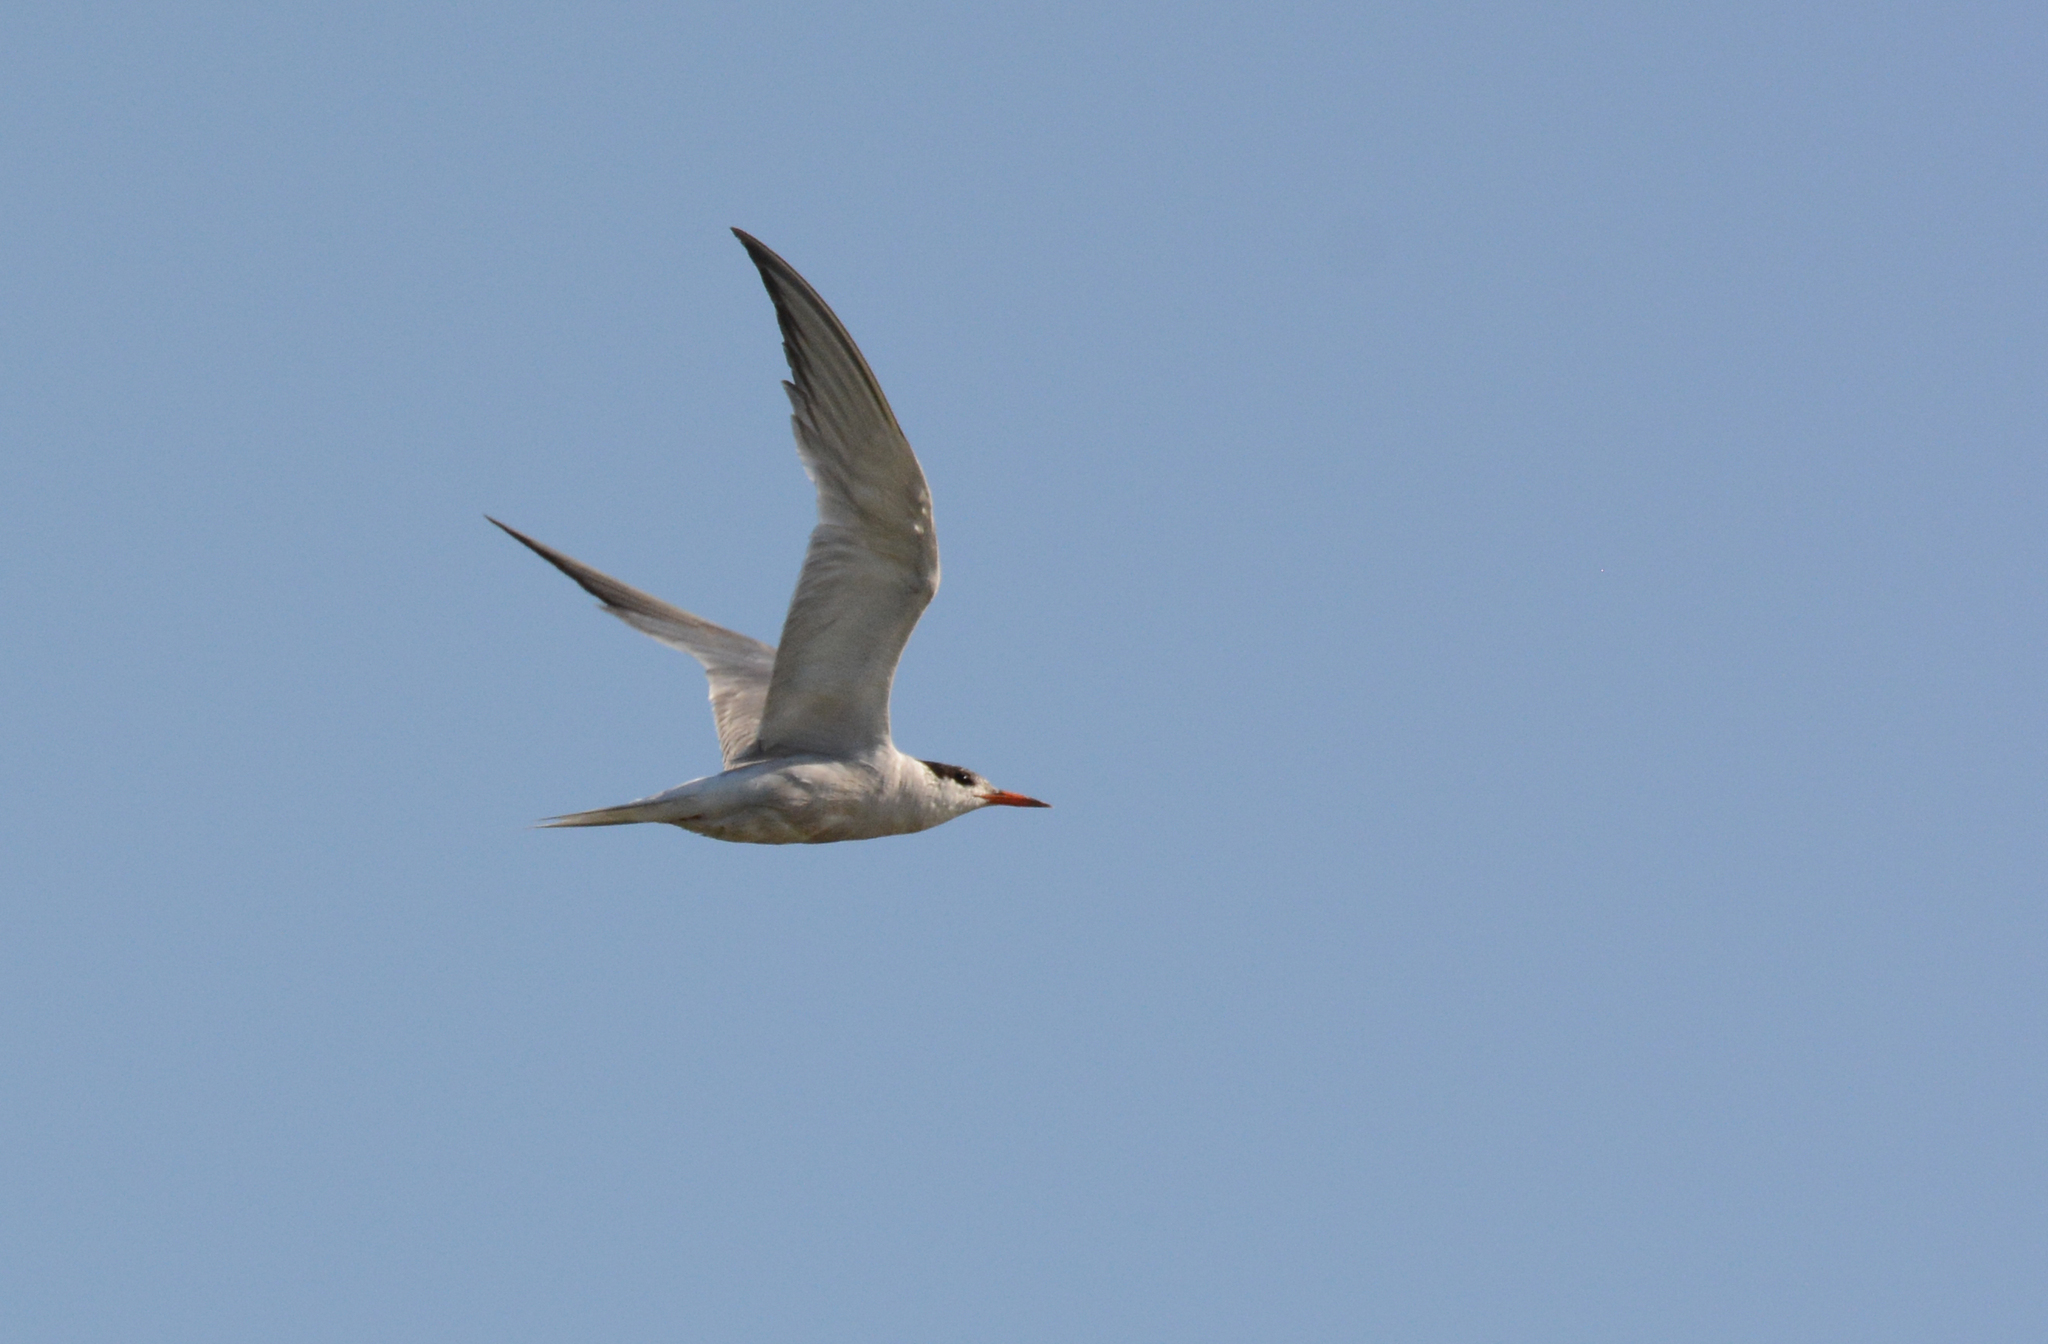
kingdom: Animalia
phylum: Chordata
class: Aves
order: Charadriiformes
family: Laridae
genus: Sterna
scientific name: Sterna hirundo
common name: Common tern
